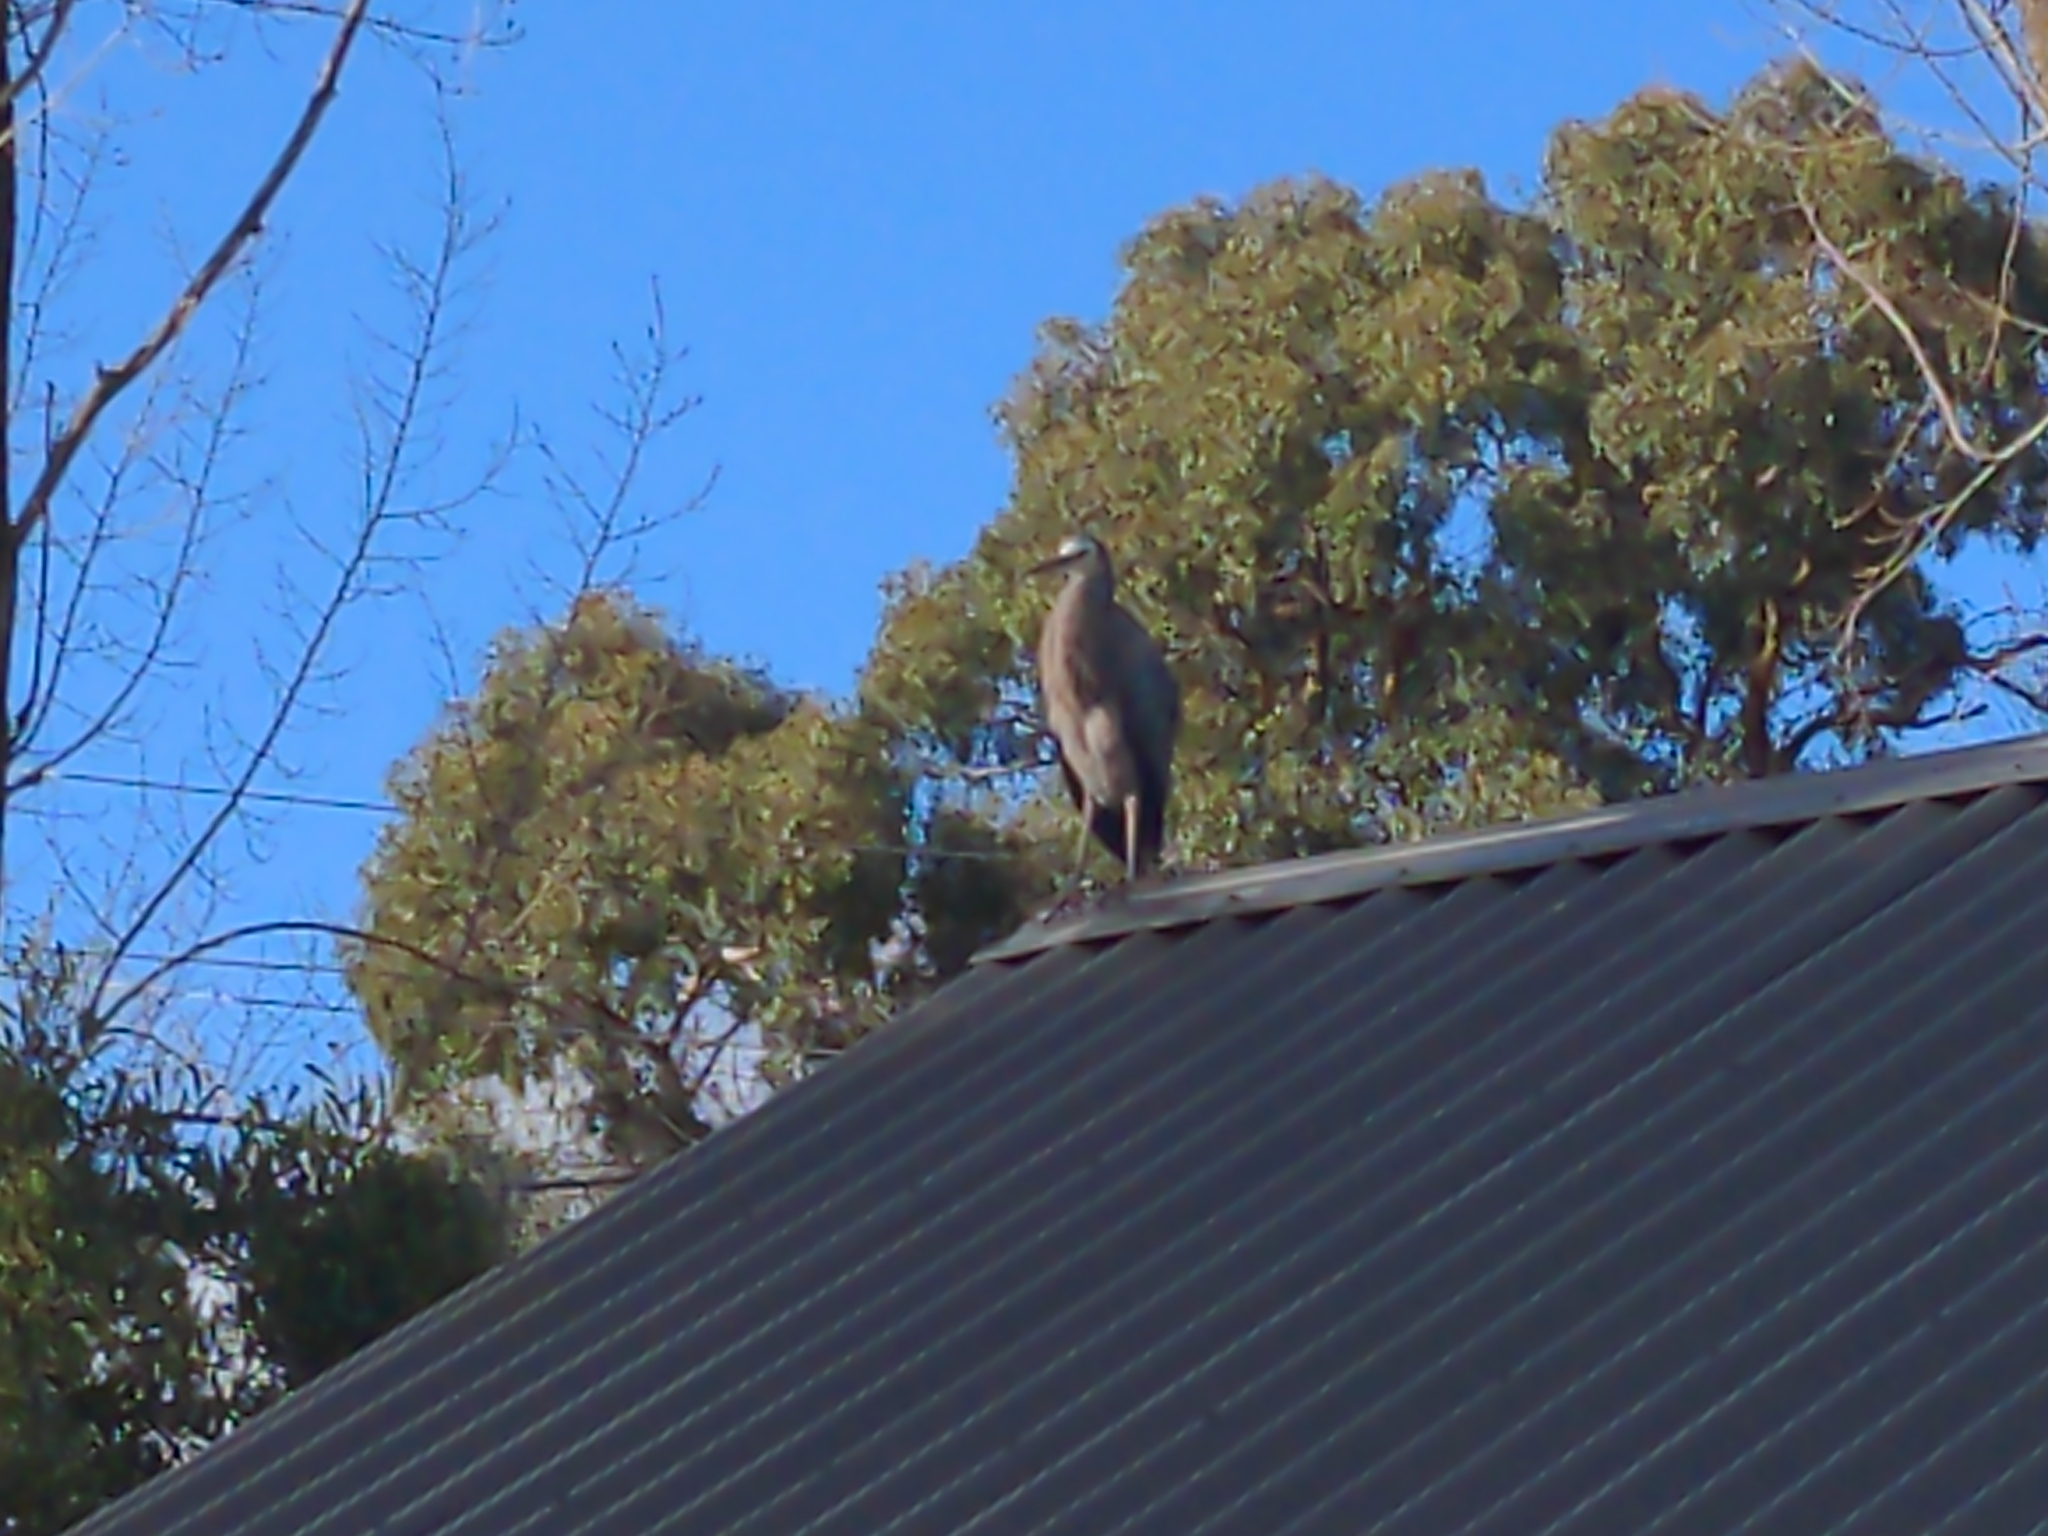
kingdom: Animalia
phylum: Chordata
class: Aves
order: Pelecaniformes
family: Ardeidae
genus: Egretta
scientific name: Egretta novaehollandiae
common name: White-faced heron
